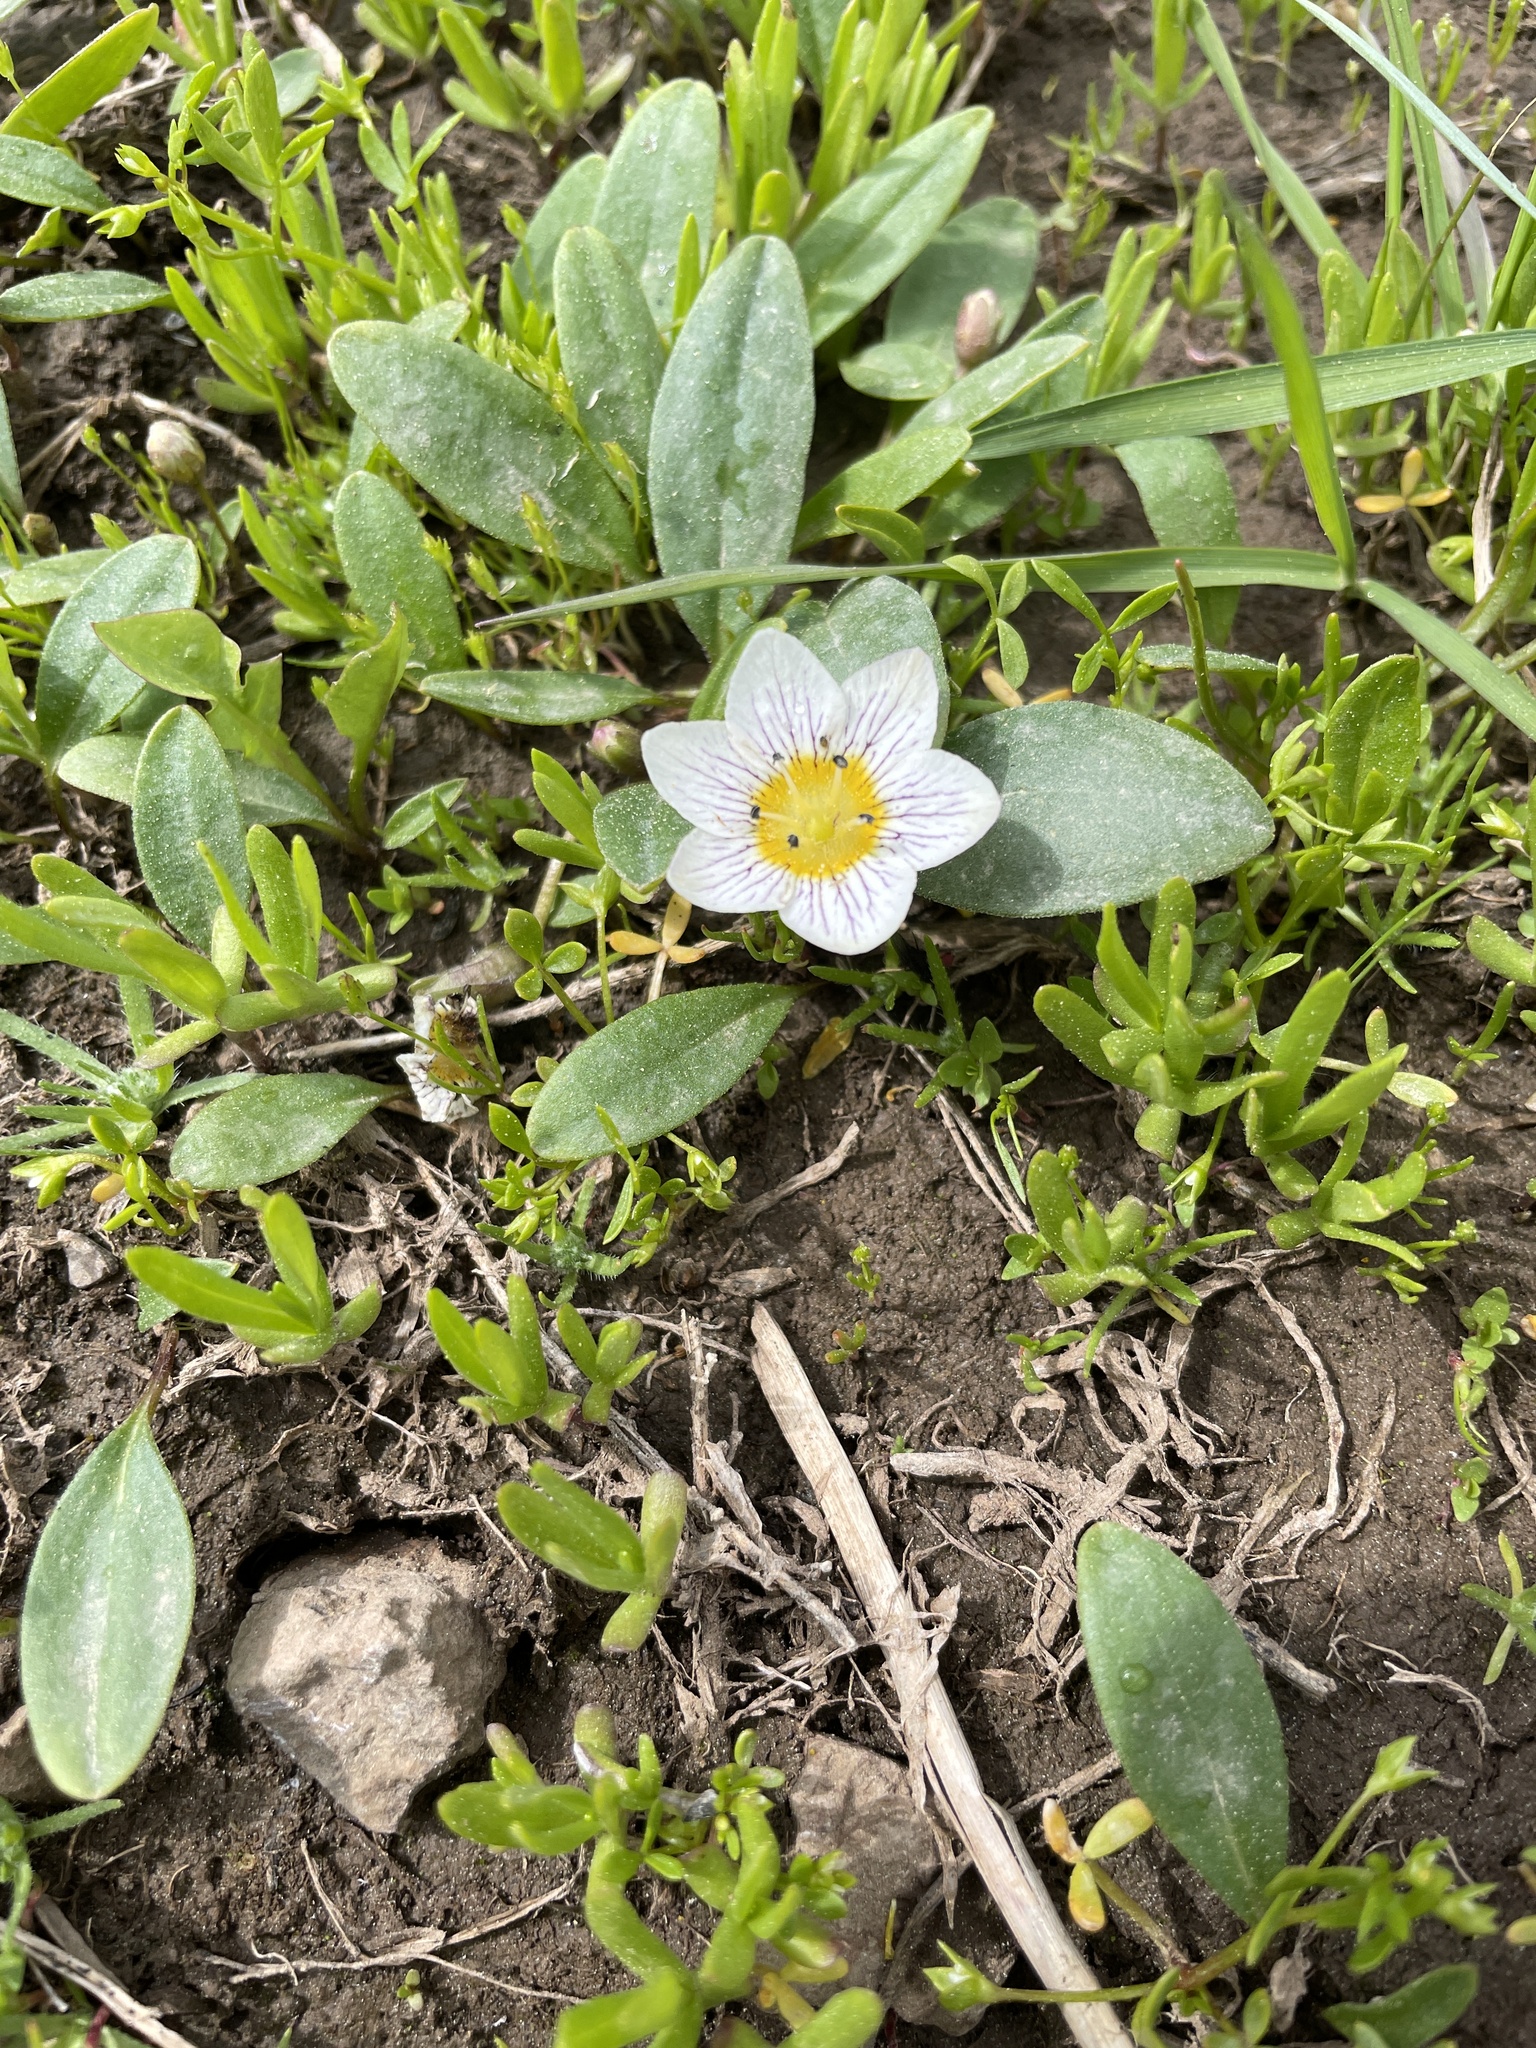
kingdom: Plantae
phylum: Tracheophyta
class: Magnoliopsida
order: Boraginales
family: Hydrophyllaceae
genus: Hesperochiron
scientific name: Hesperochiron pumilus
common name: Dwarf hesperochiron
